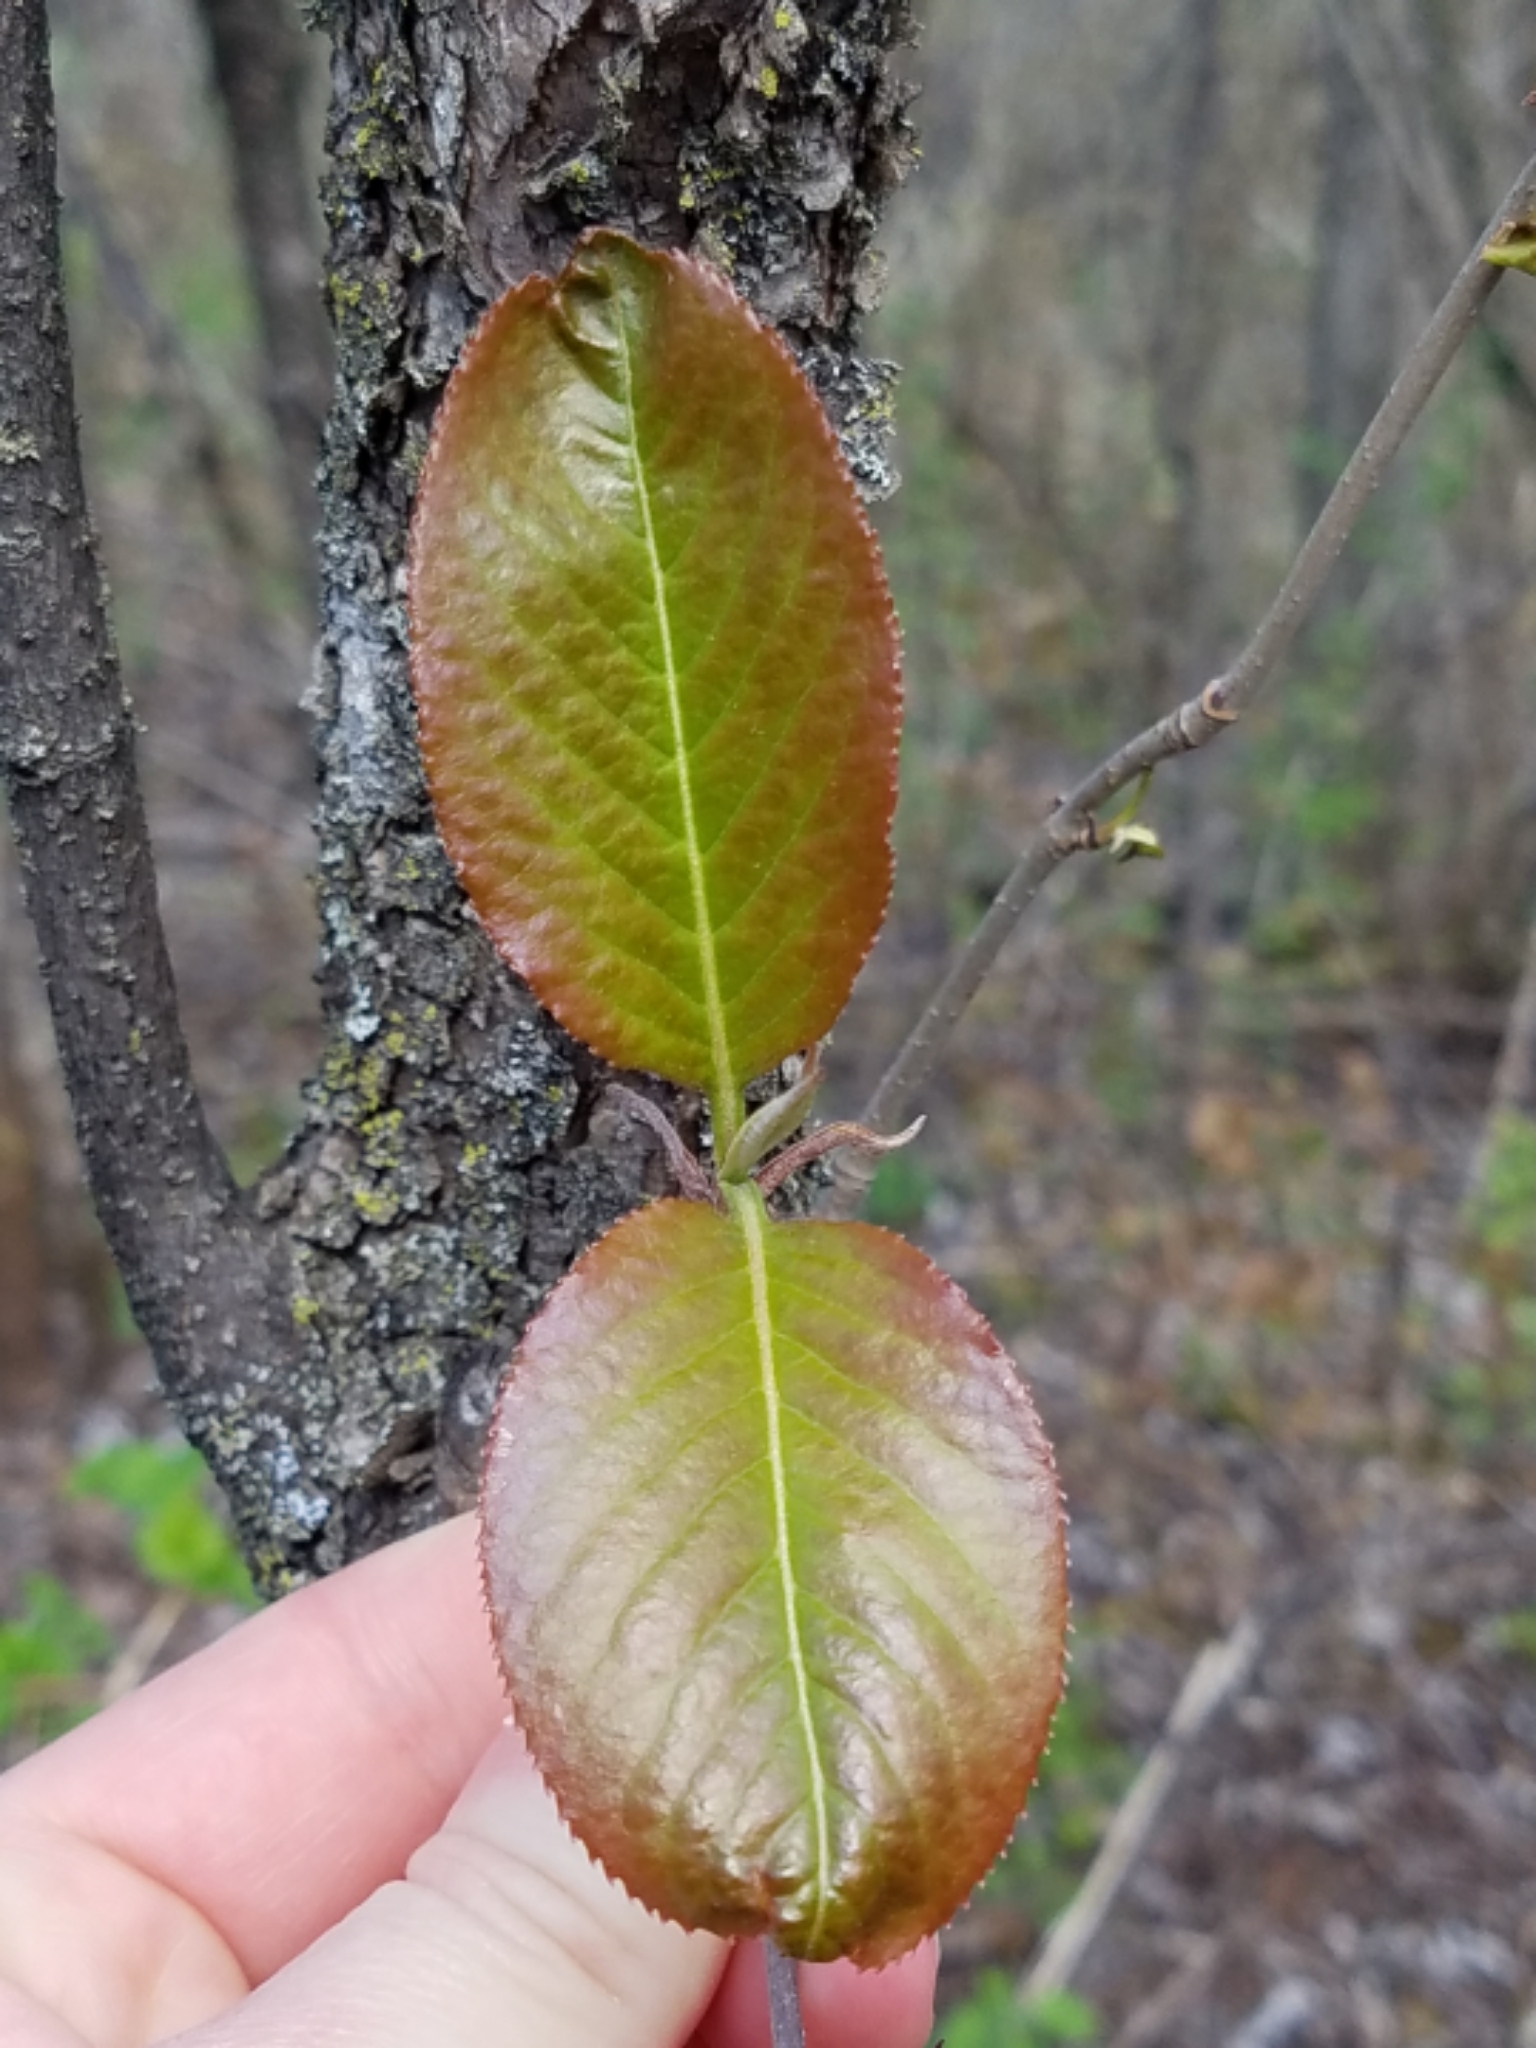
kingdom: Plantae
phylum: Tracheophyta
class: Magnoliopsida
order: Dipsacales
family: Viburnaceae
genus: Viburnum
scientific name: Viburnum lentago
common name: Black haw
